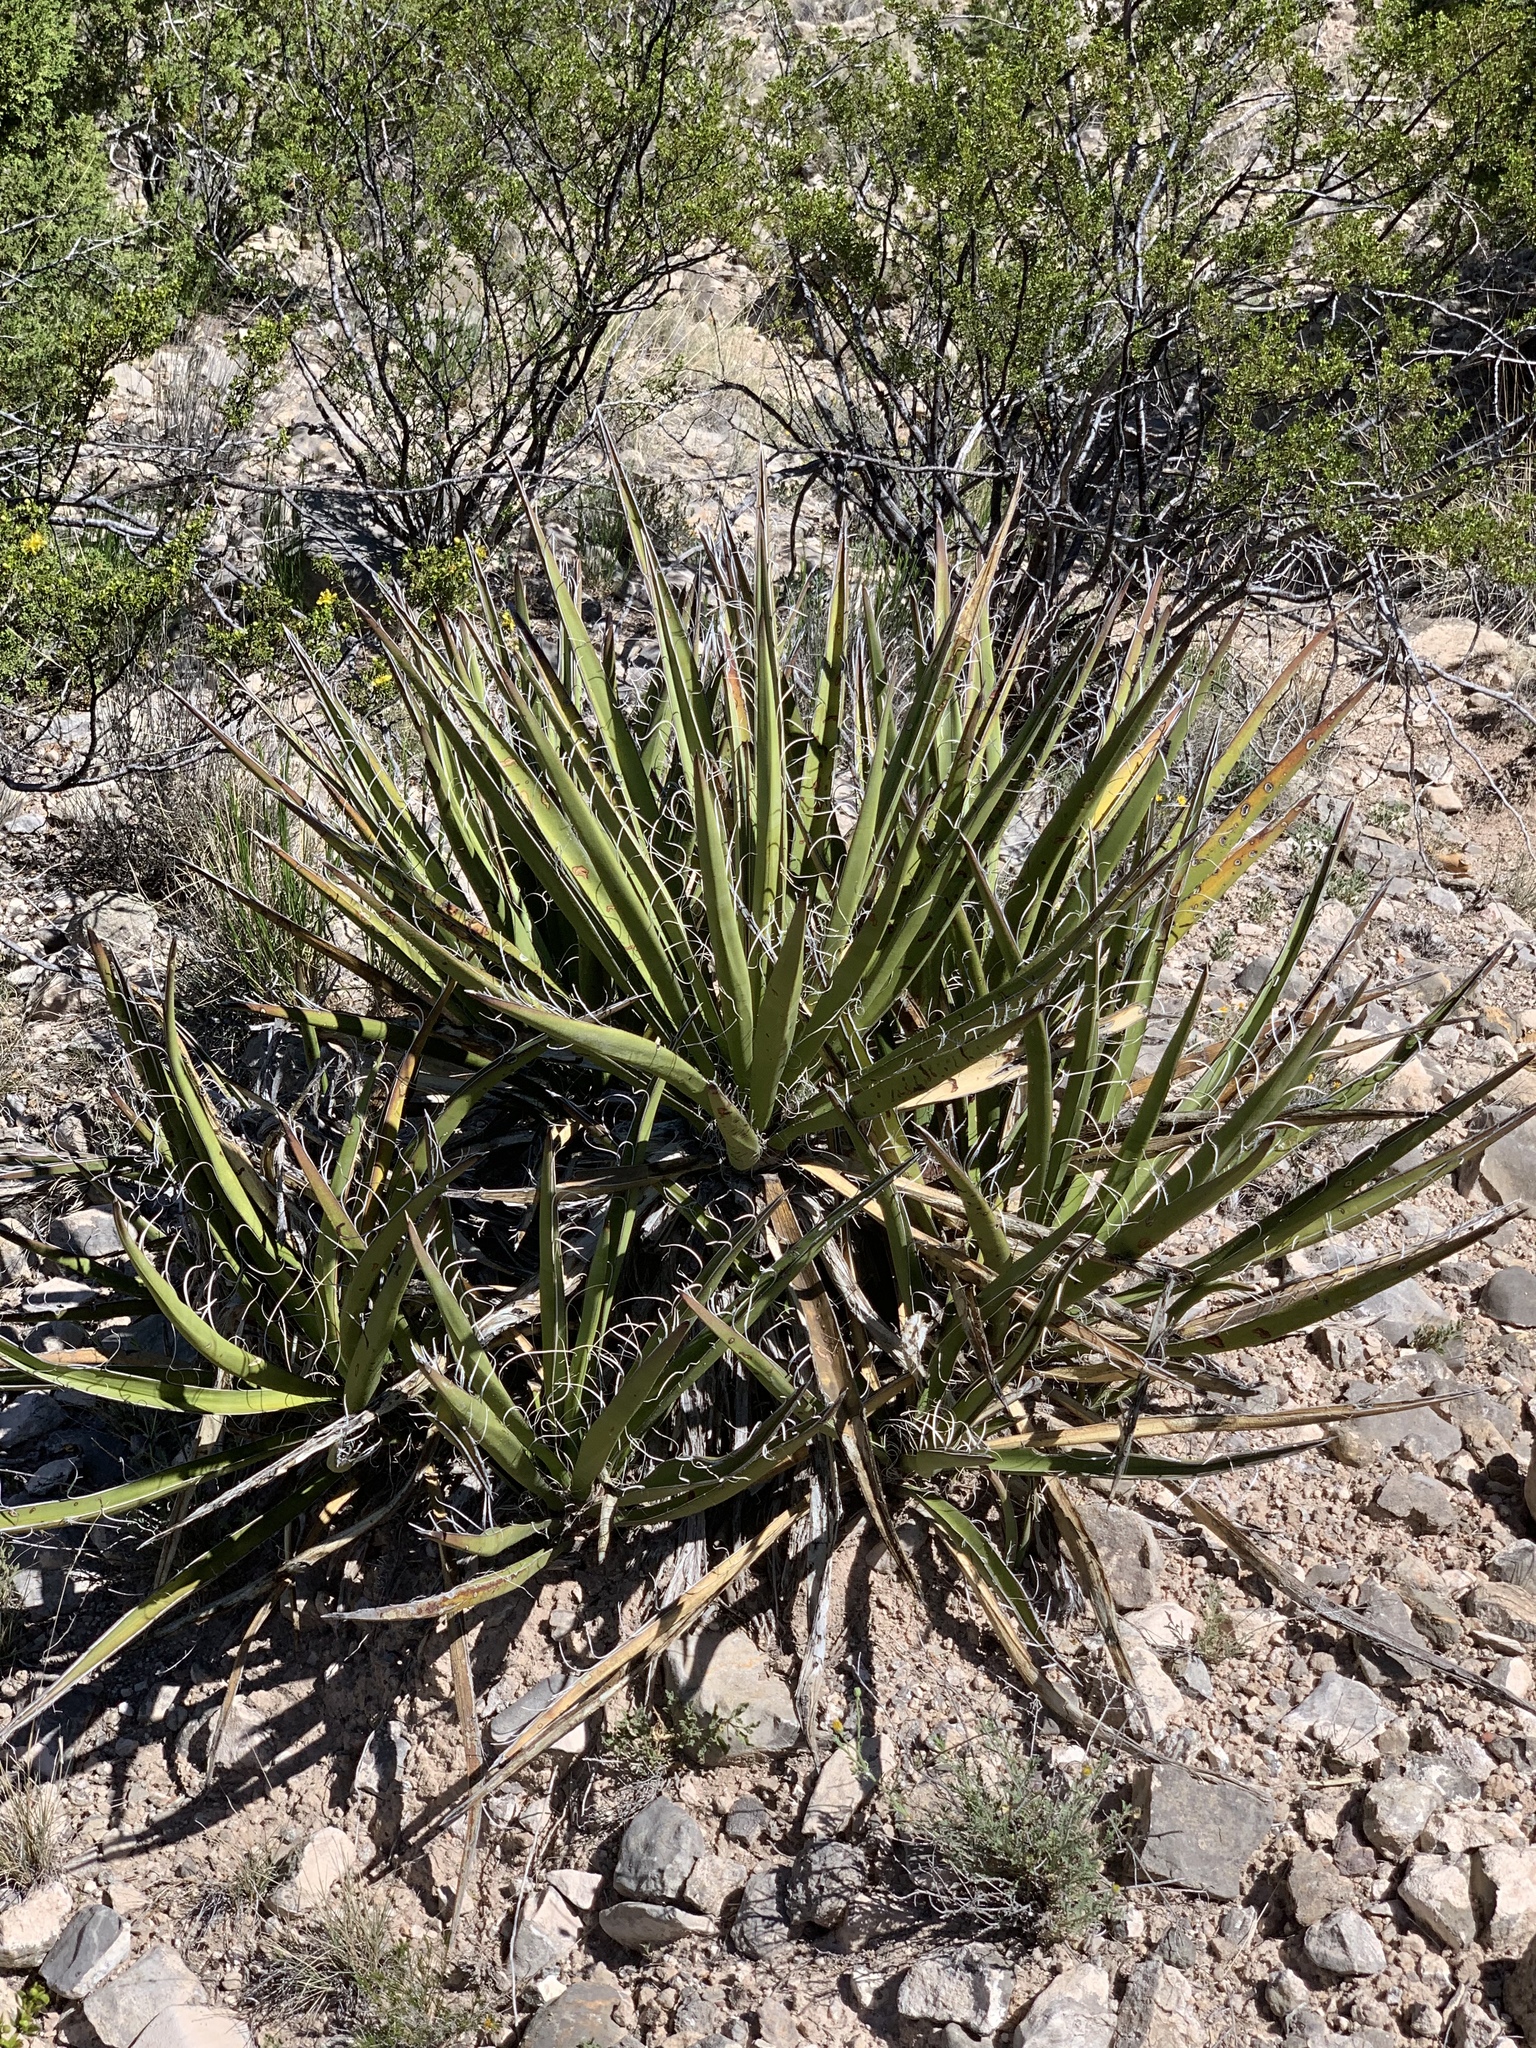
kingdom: Plantae
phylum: Tracheophyta
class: Liliopsida
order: Asparagales
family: Asparagaceae
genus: Yucca
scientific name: Yucca baccata
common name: Banana yucca
